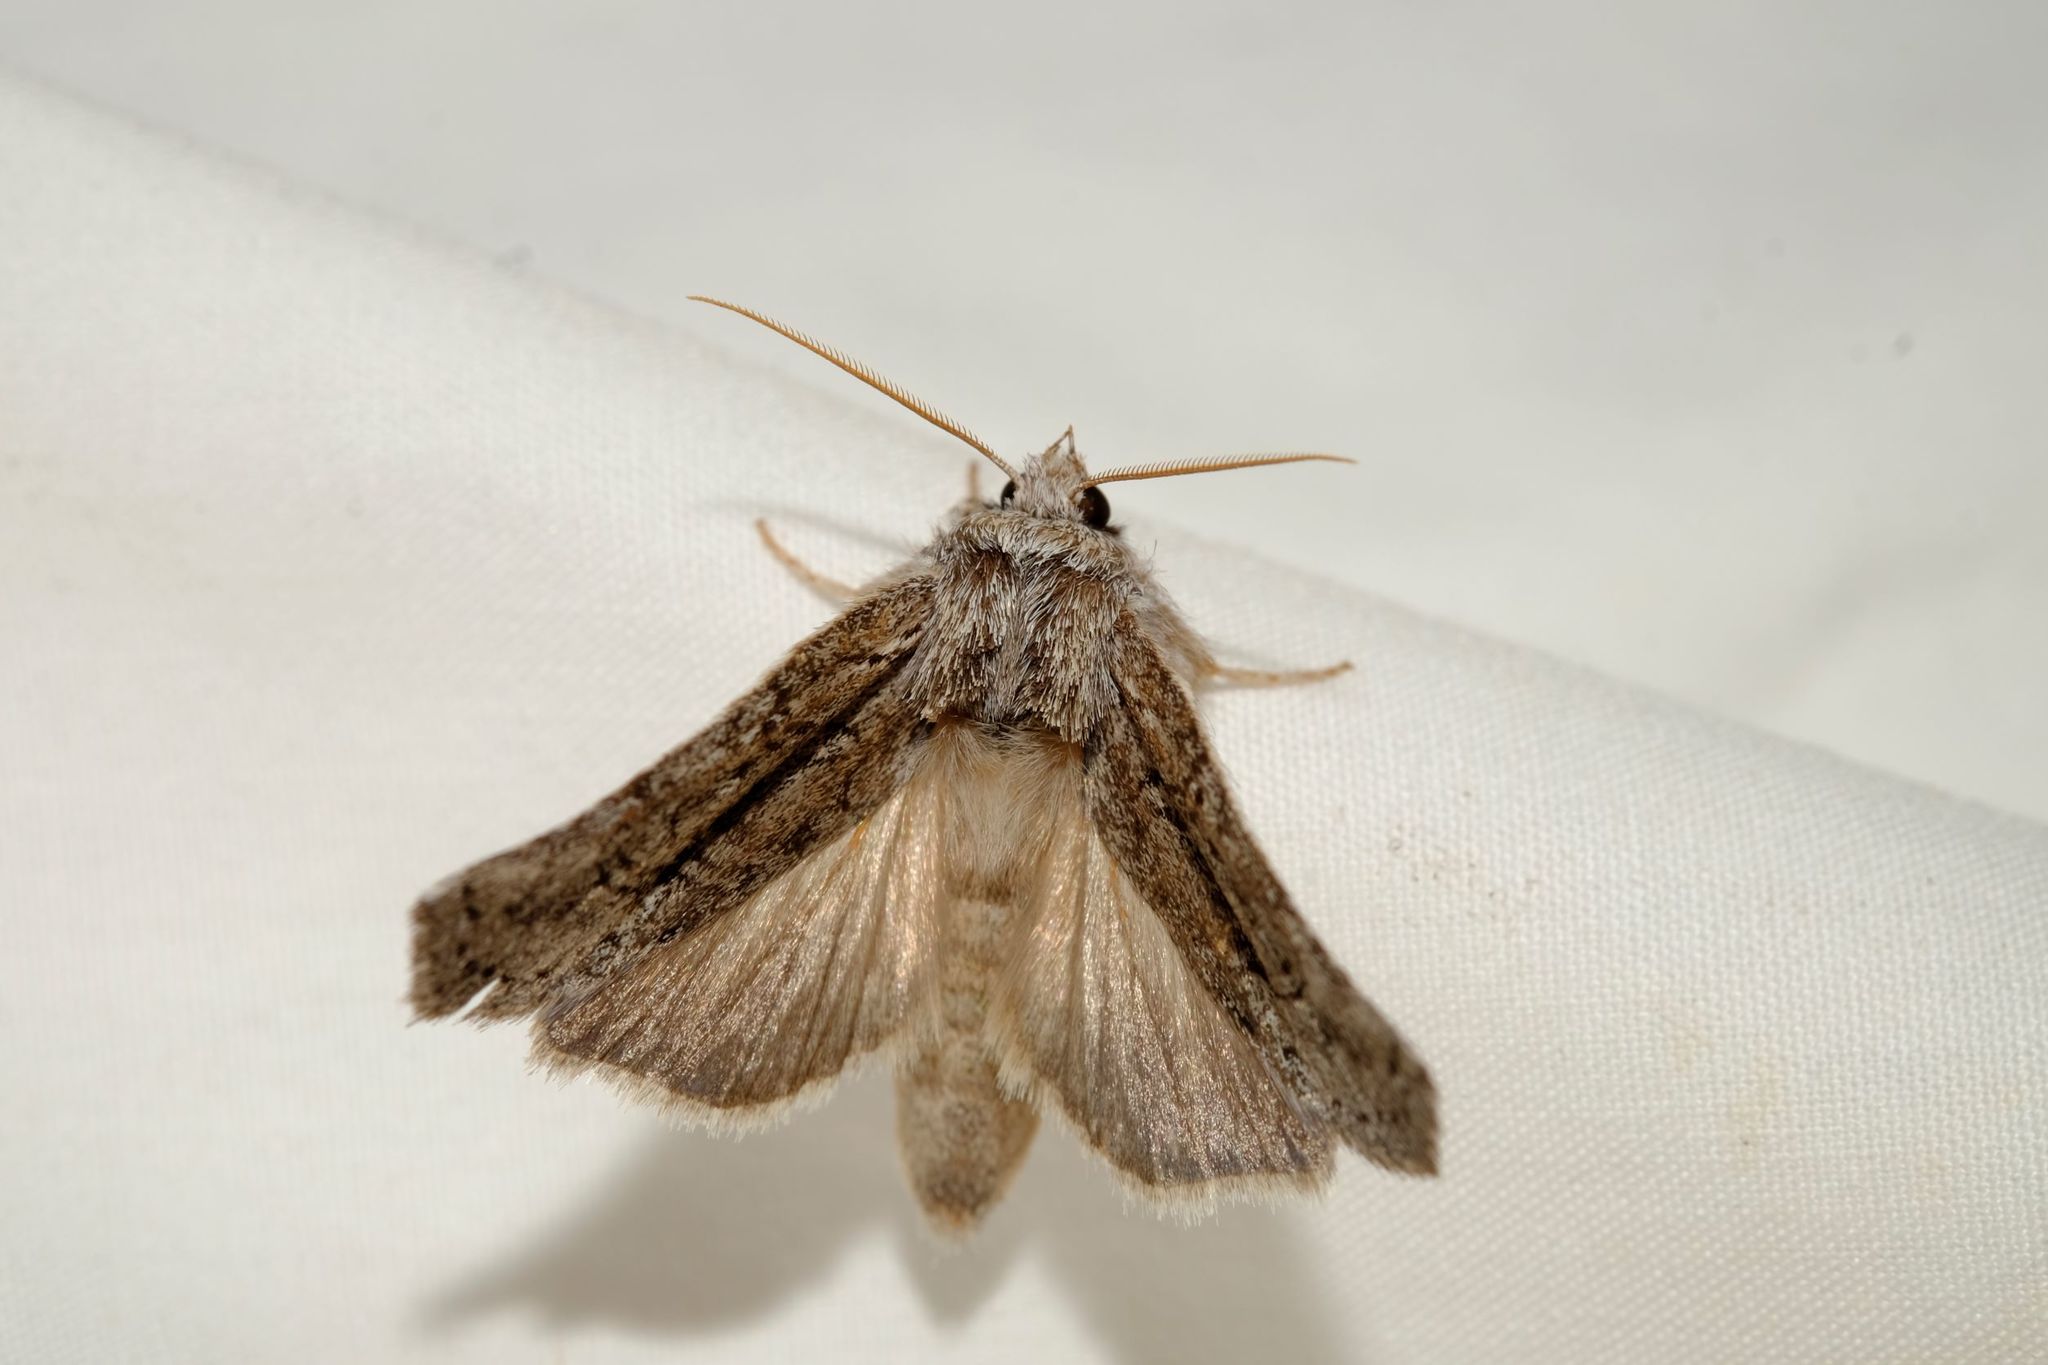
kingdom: Animalia
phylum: Arthropoda
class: Insecta
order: Lepidoptera
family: Notodontidae
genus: Scythrophanes
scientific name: Scythrophanes stenoptera
